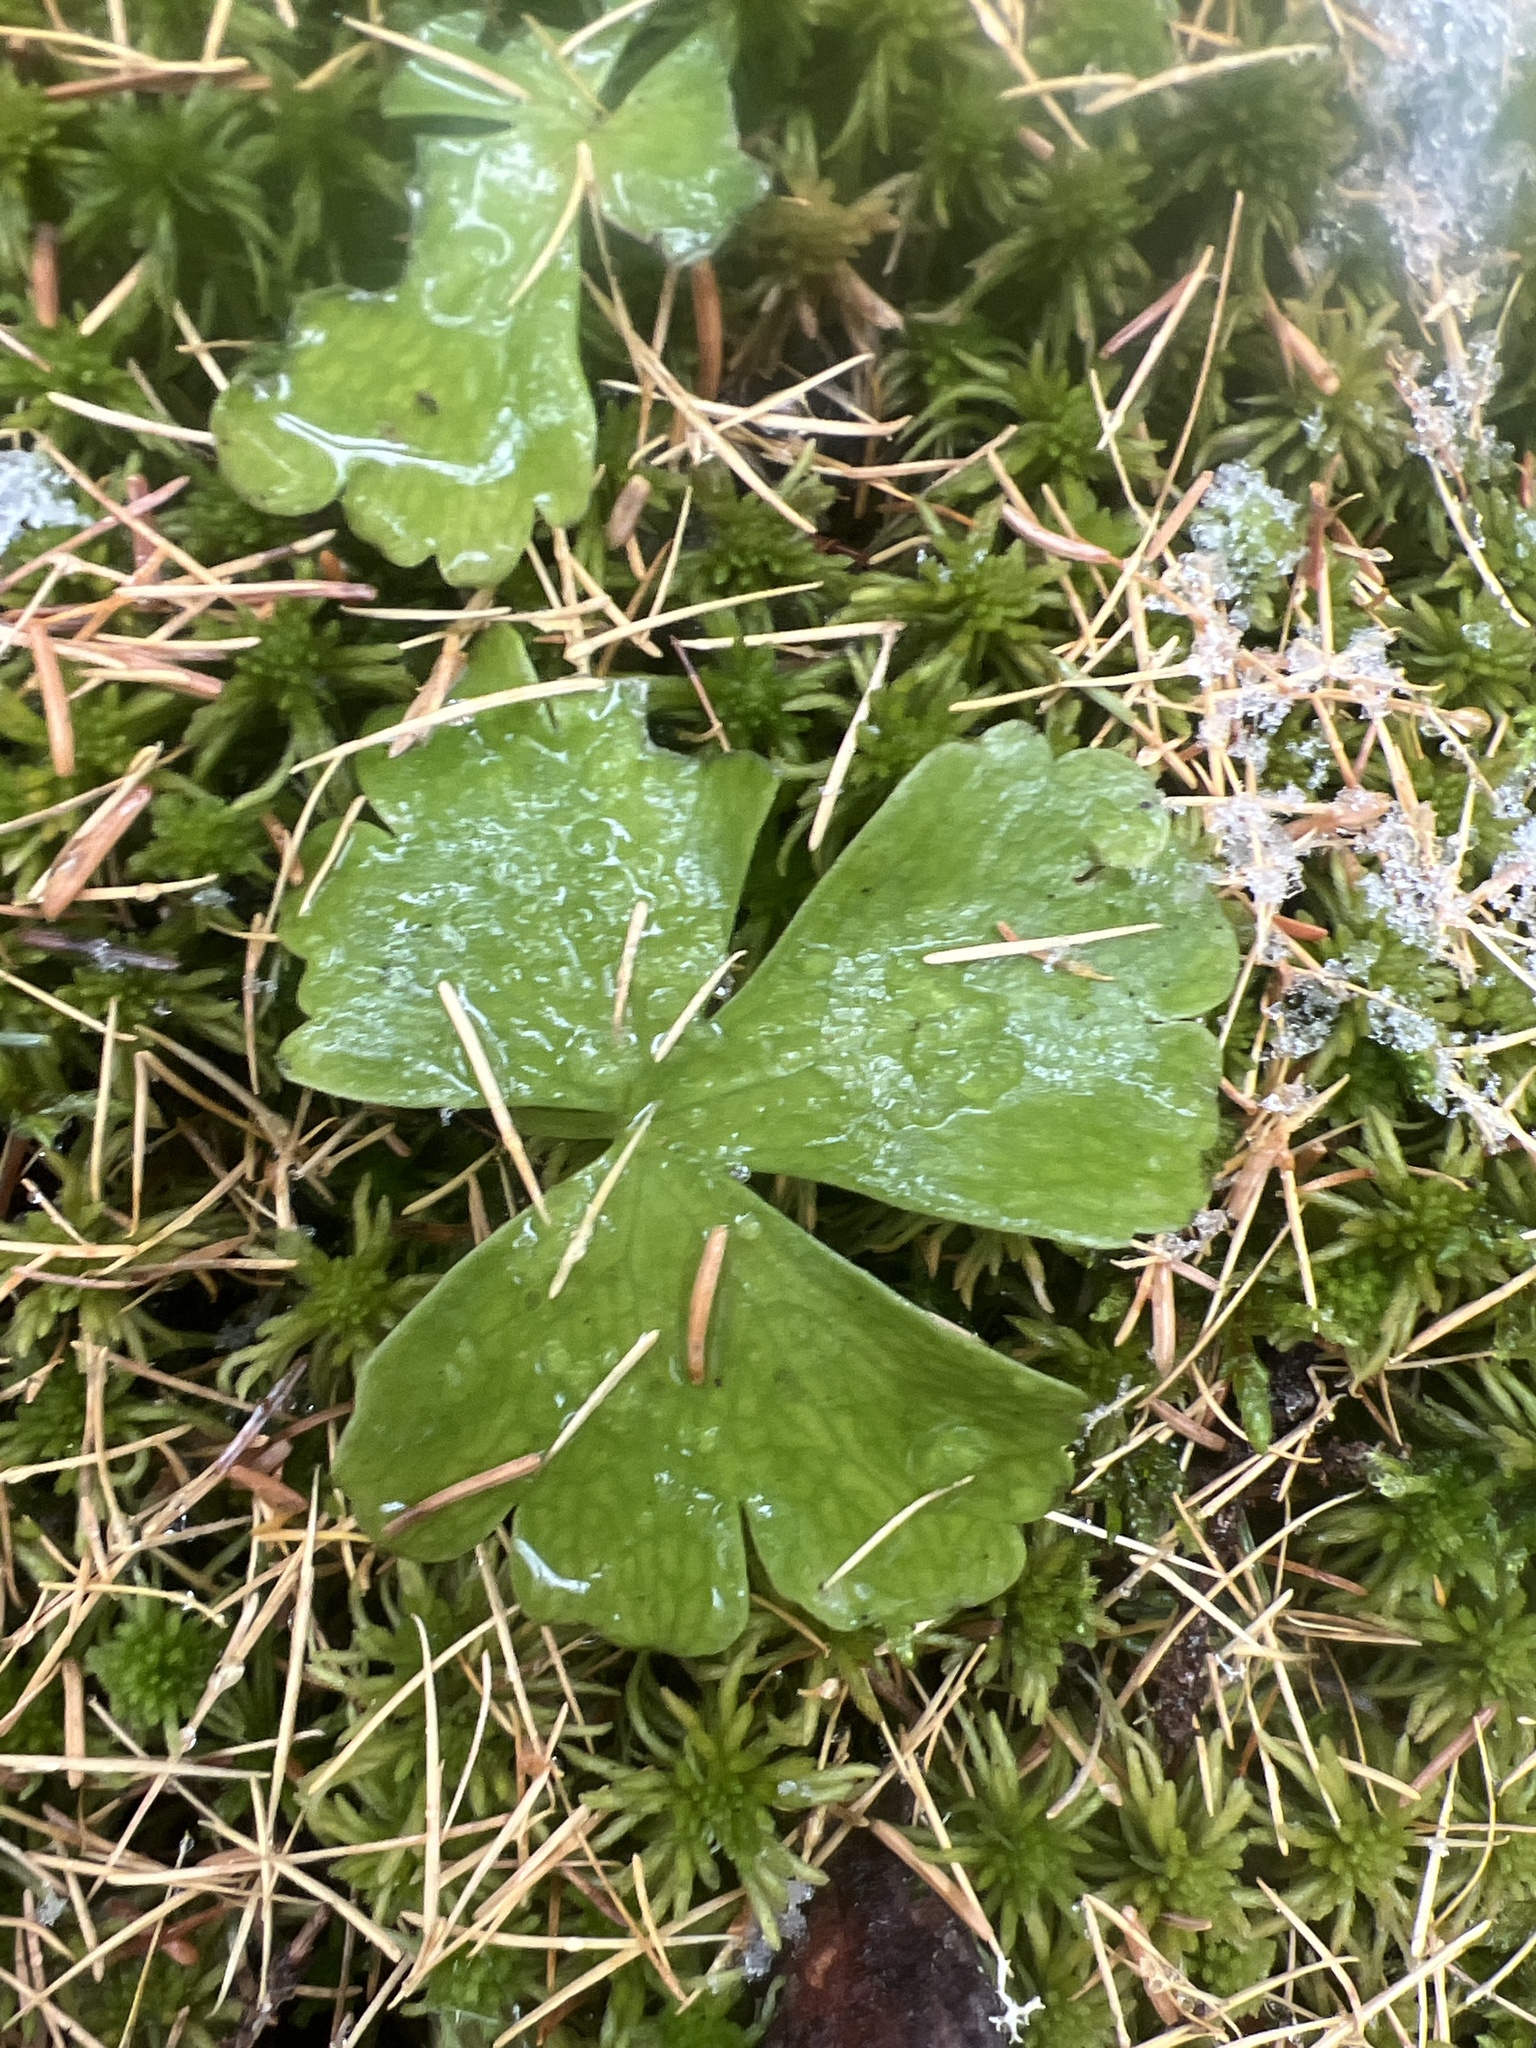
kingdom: Plantae
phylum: Tracheophyta
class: Magnoliopsida
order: Ranunculales
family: Ranunculaceae
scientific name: Ranunculaceae
